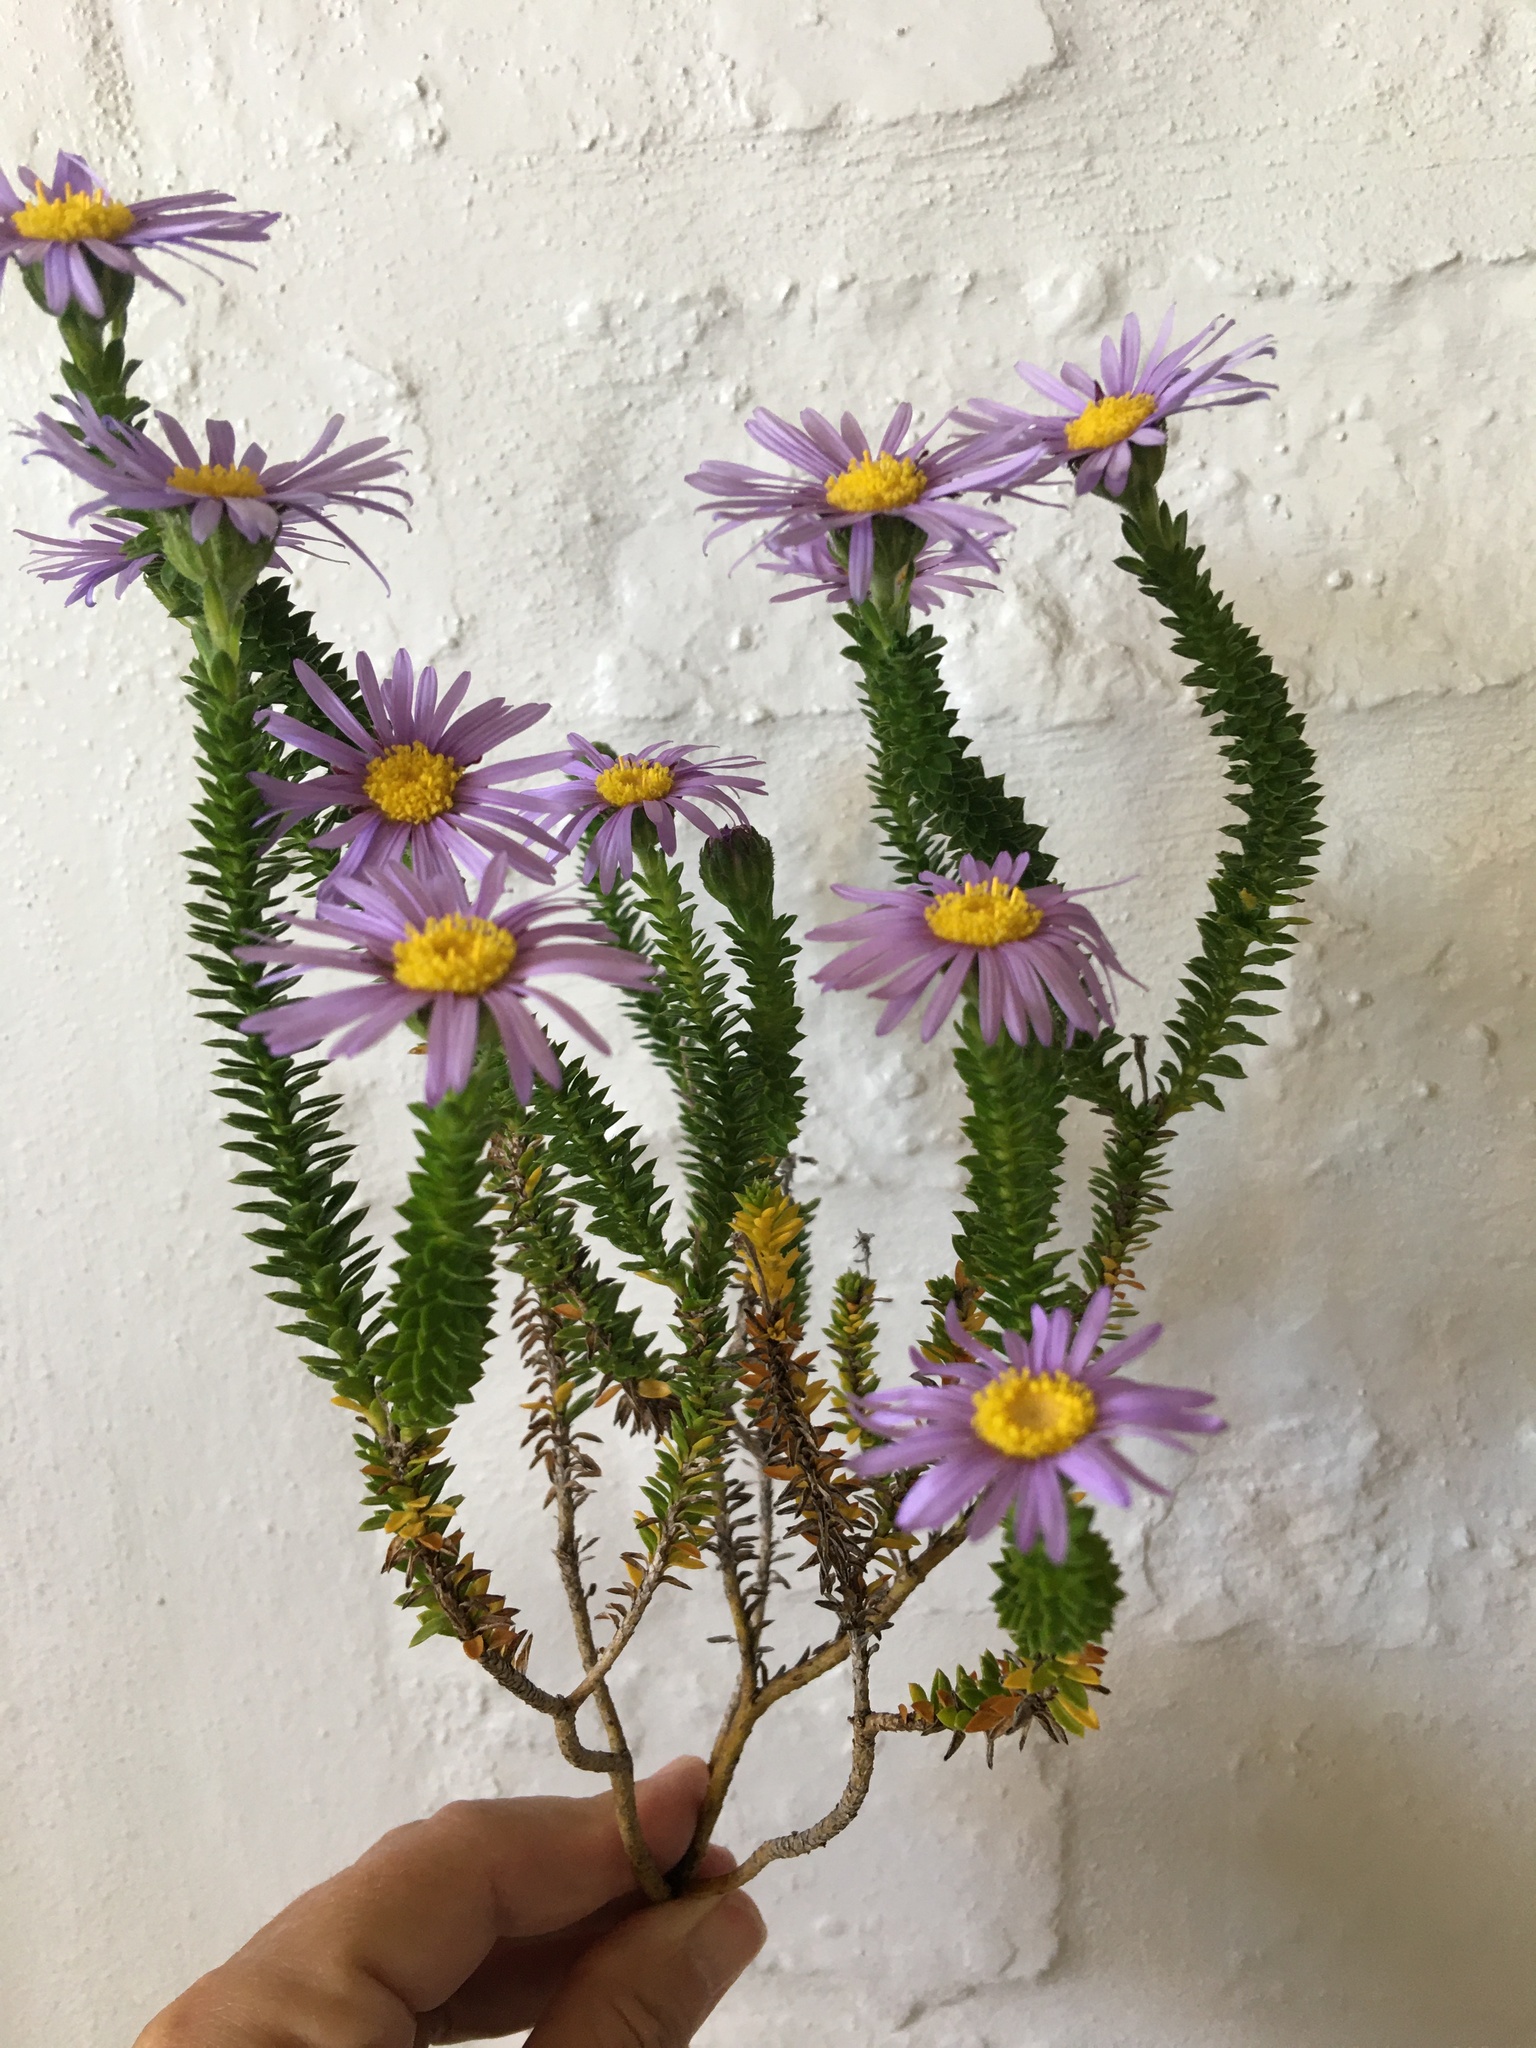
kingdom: Plantae
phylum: Tracheophyta
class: Magnoliopsida
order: Asterales
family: Asteraceae
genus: Felicia
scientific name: Felicia echinata
